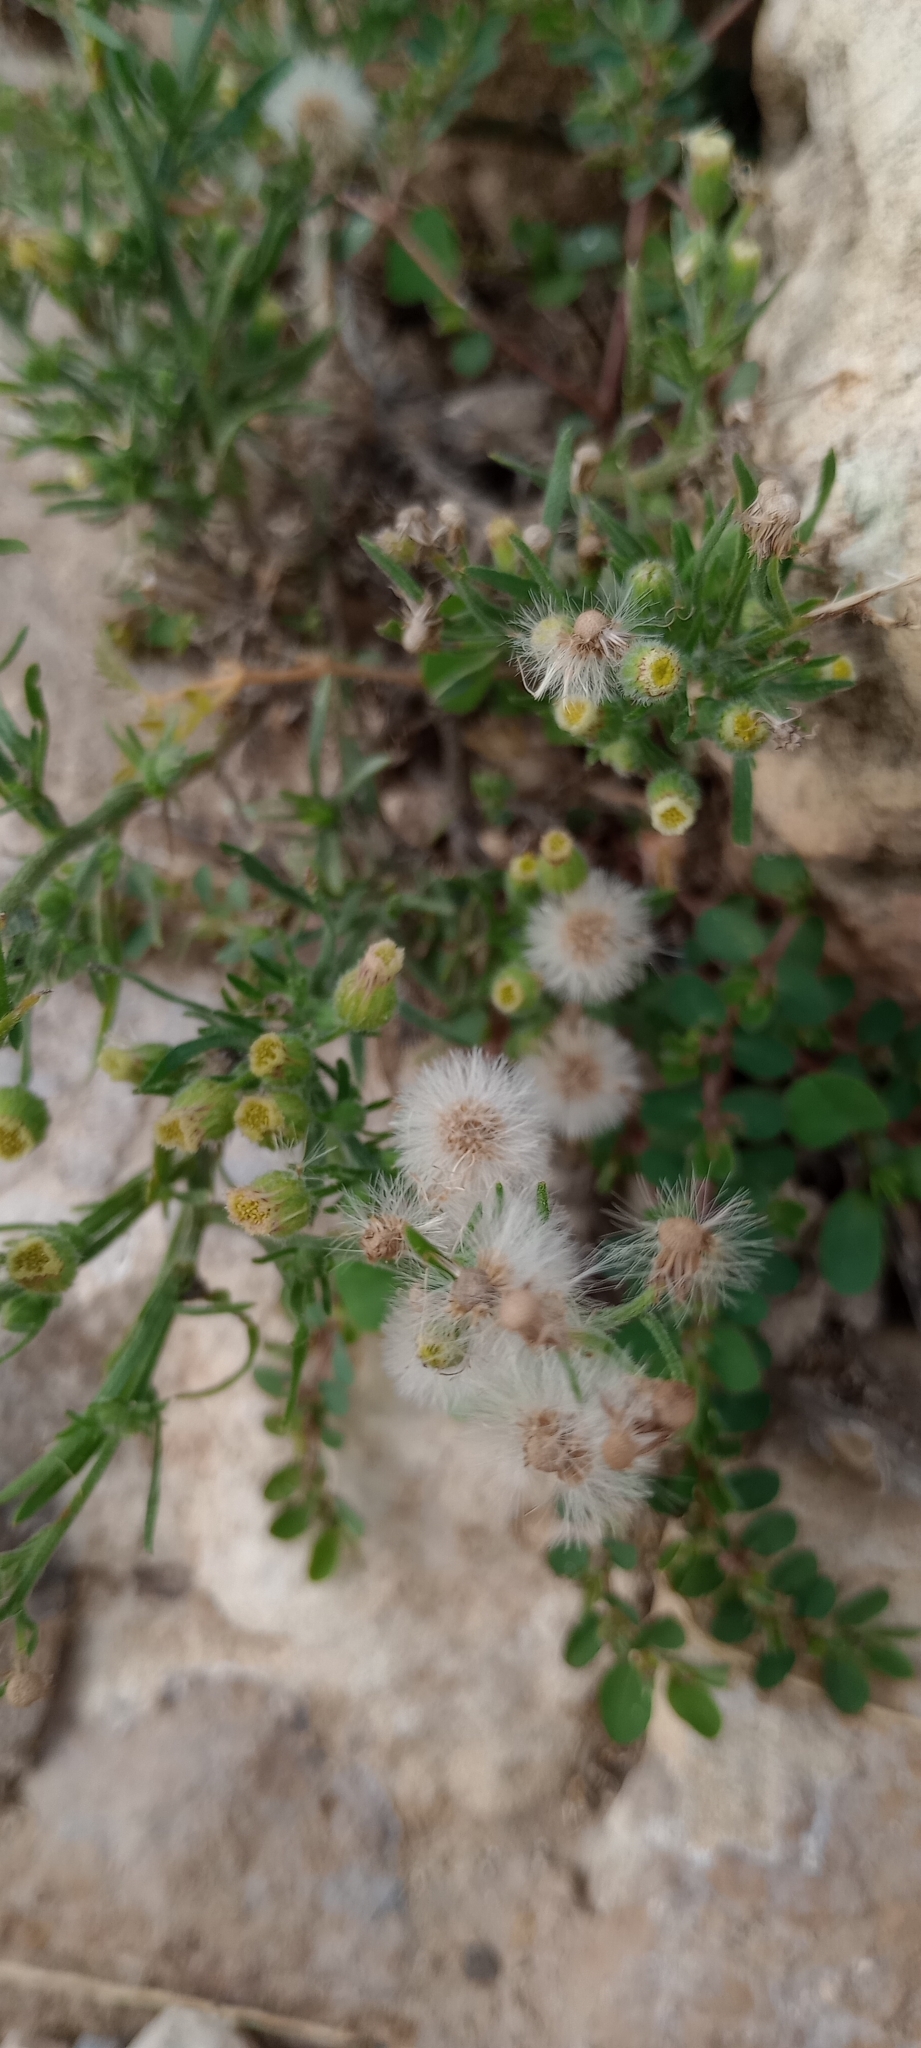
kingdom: Plantae
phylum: Tracheophyta
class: Magnoliopsida
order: Asterales
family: Asteraceae
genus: Erigeron
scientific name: Erigeron bonariensis
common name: Argentine fleabane
